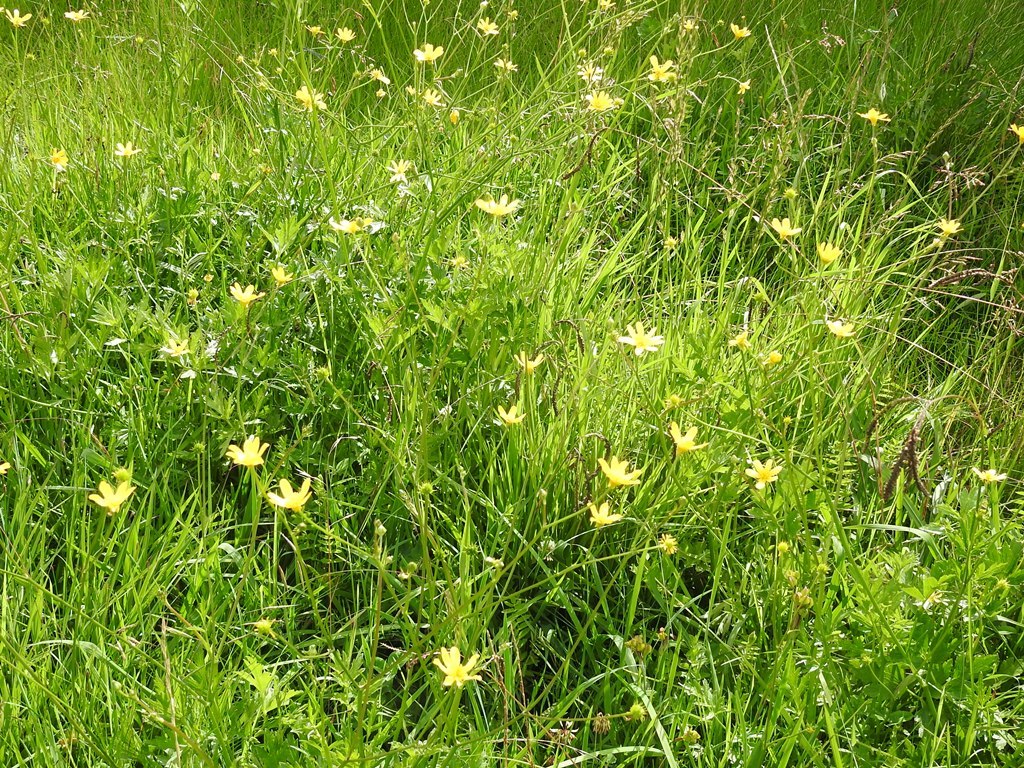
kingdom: Plantae
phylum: Tracheophyta
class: Magnoliopsida
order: Ranunculales
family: Ranunculaceae
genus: Ranunculus
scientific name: Ranunculus petiolaris
